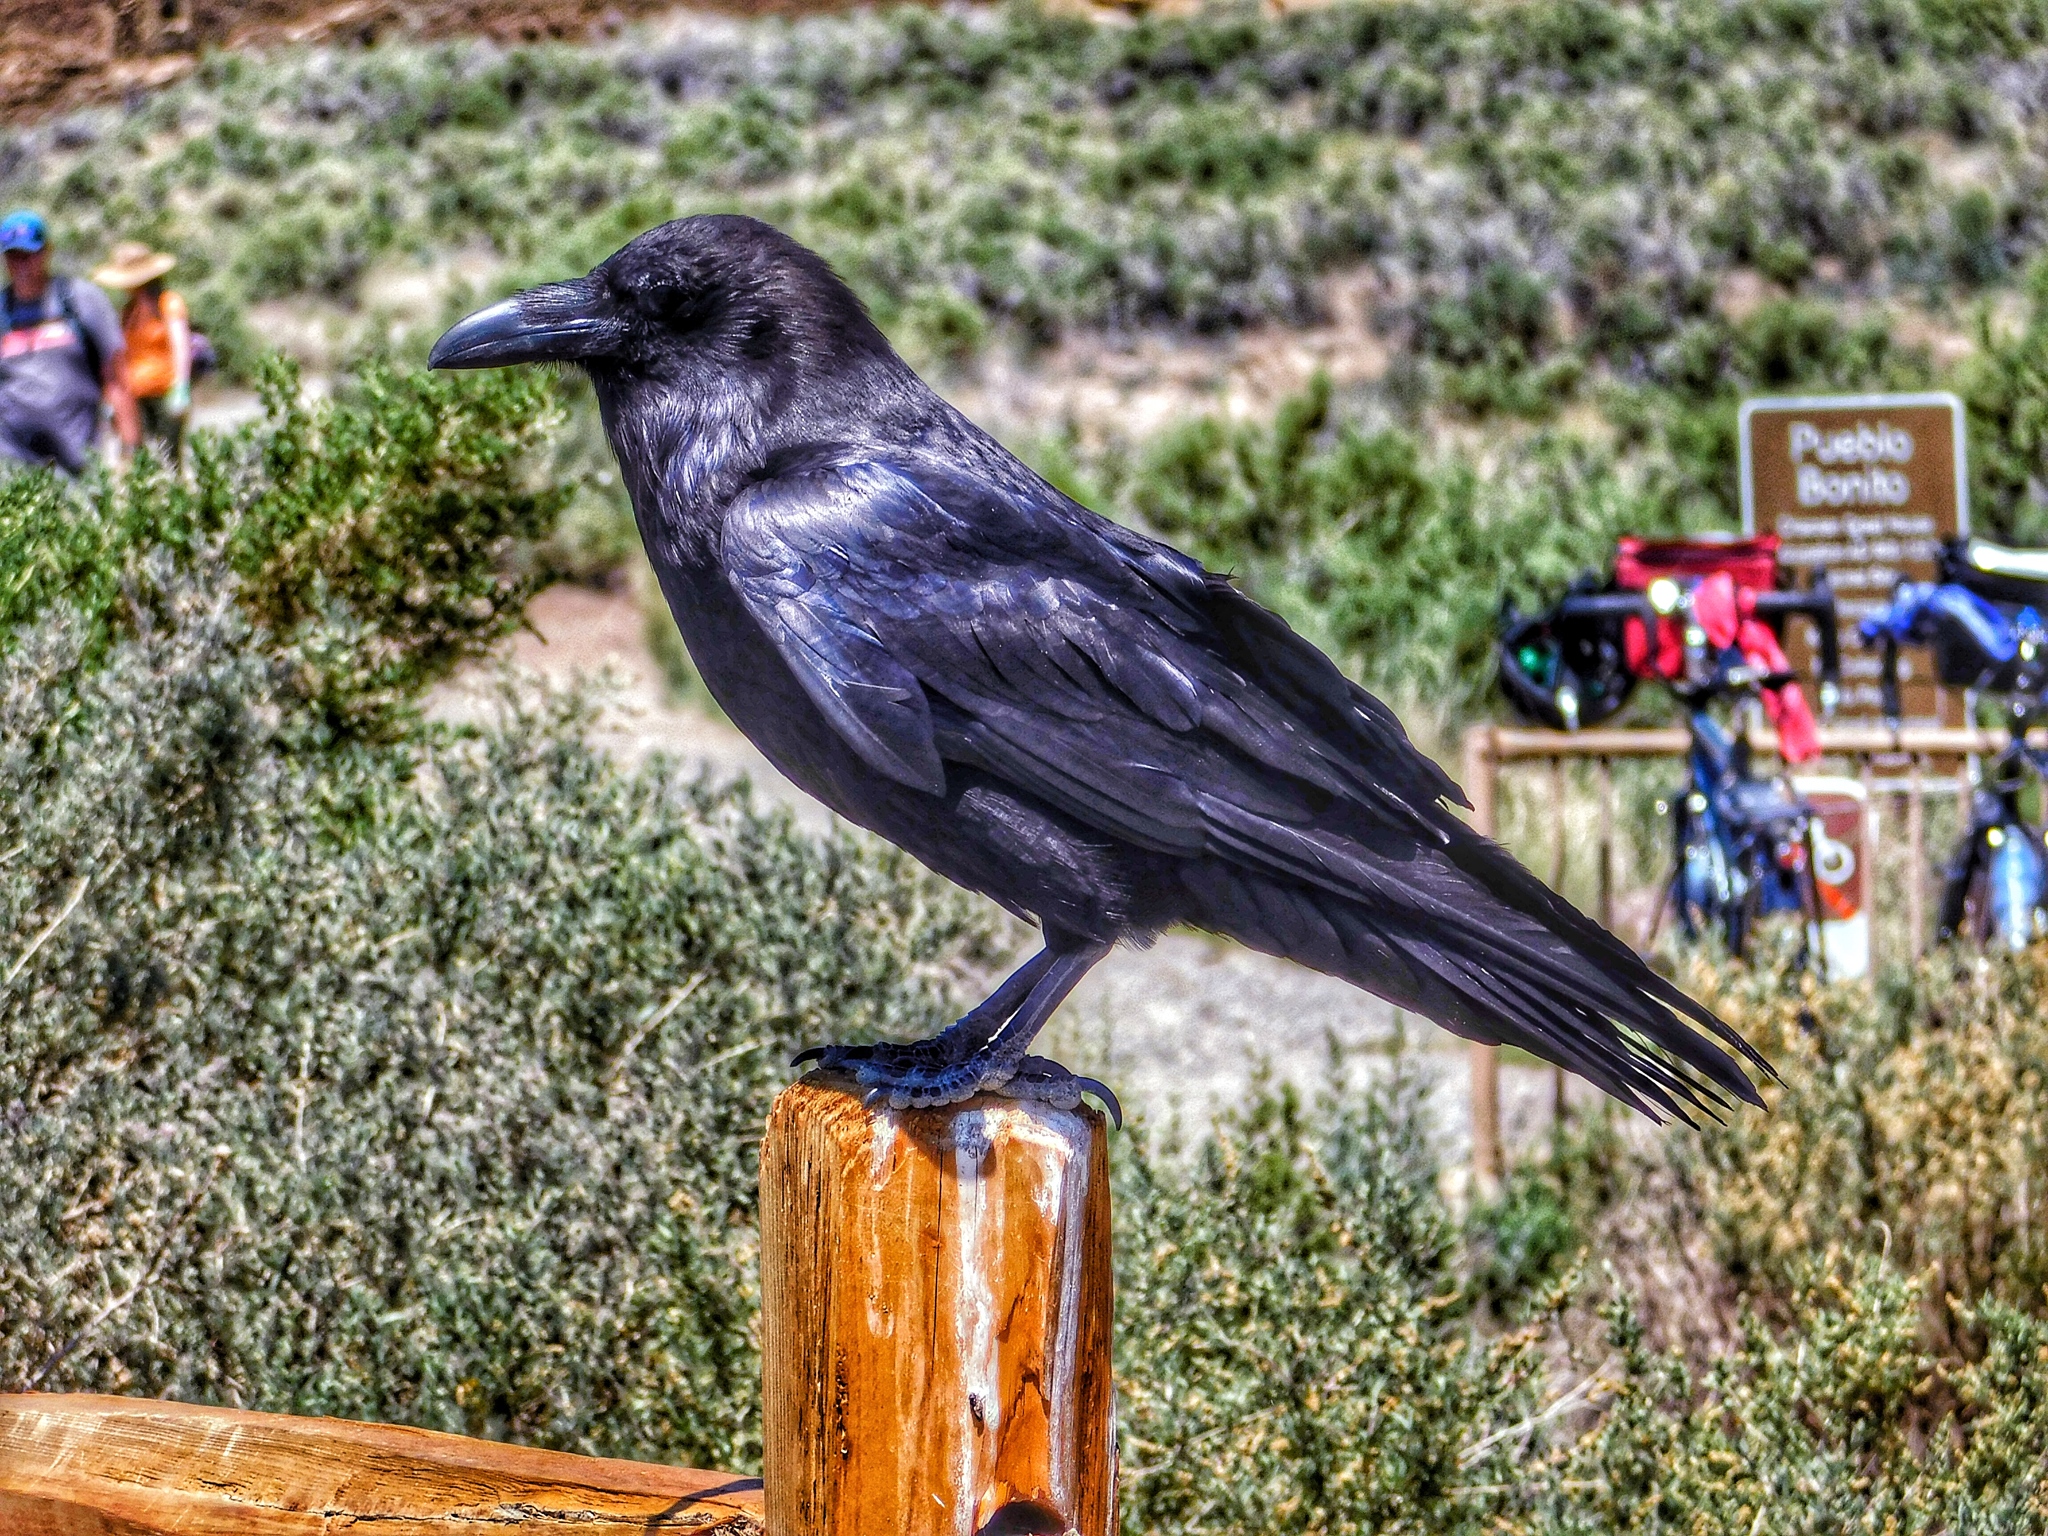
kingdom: Animalia
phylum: Chordata
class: Aves
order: Passeriformes
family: Corvidae
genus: Corvus
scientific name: Corvus corax
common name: Common raven
